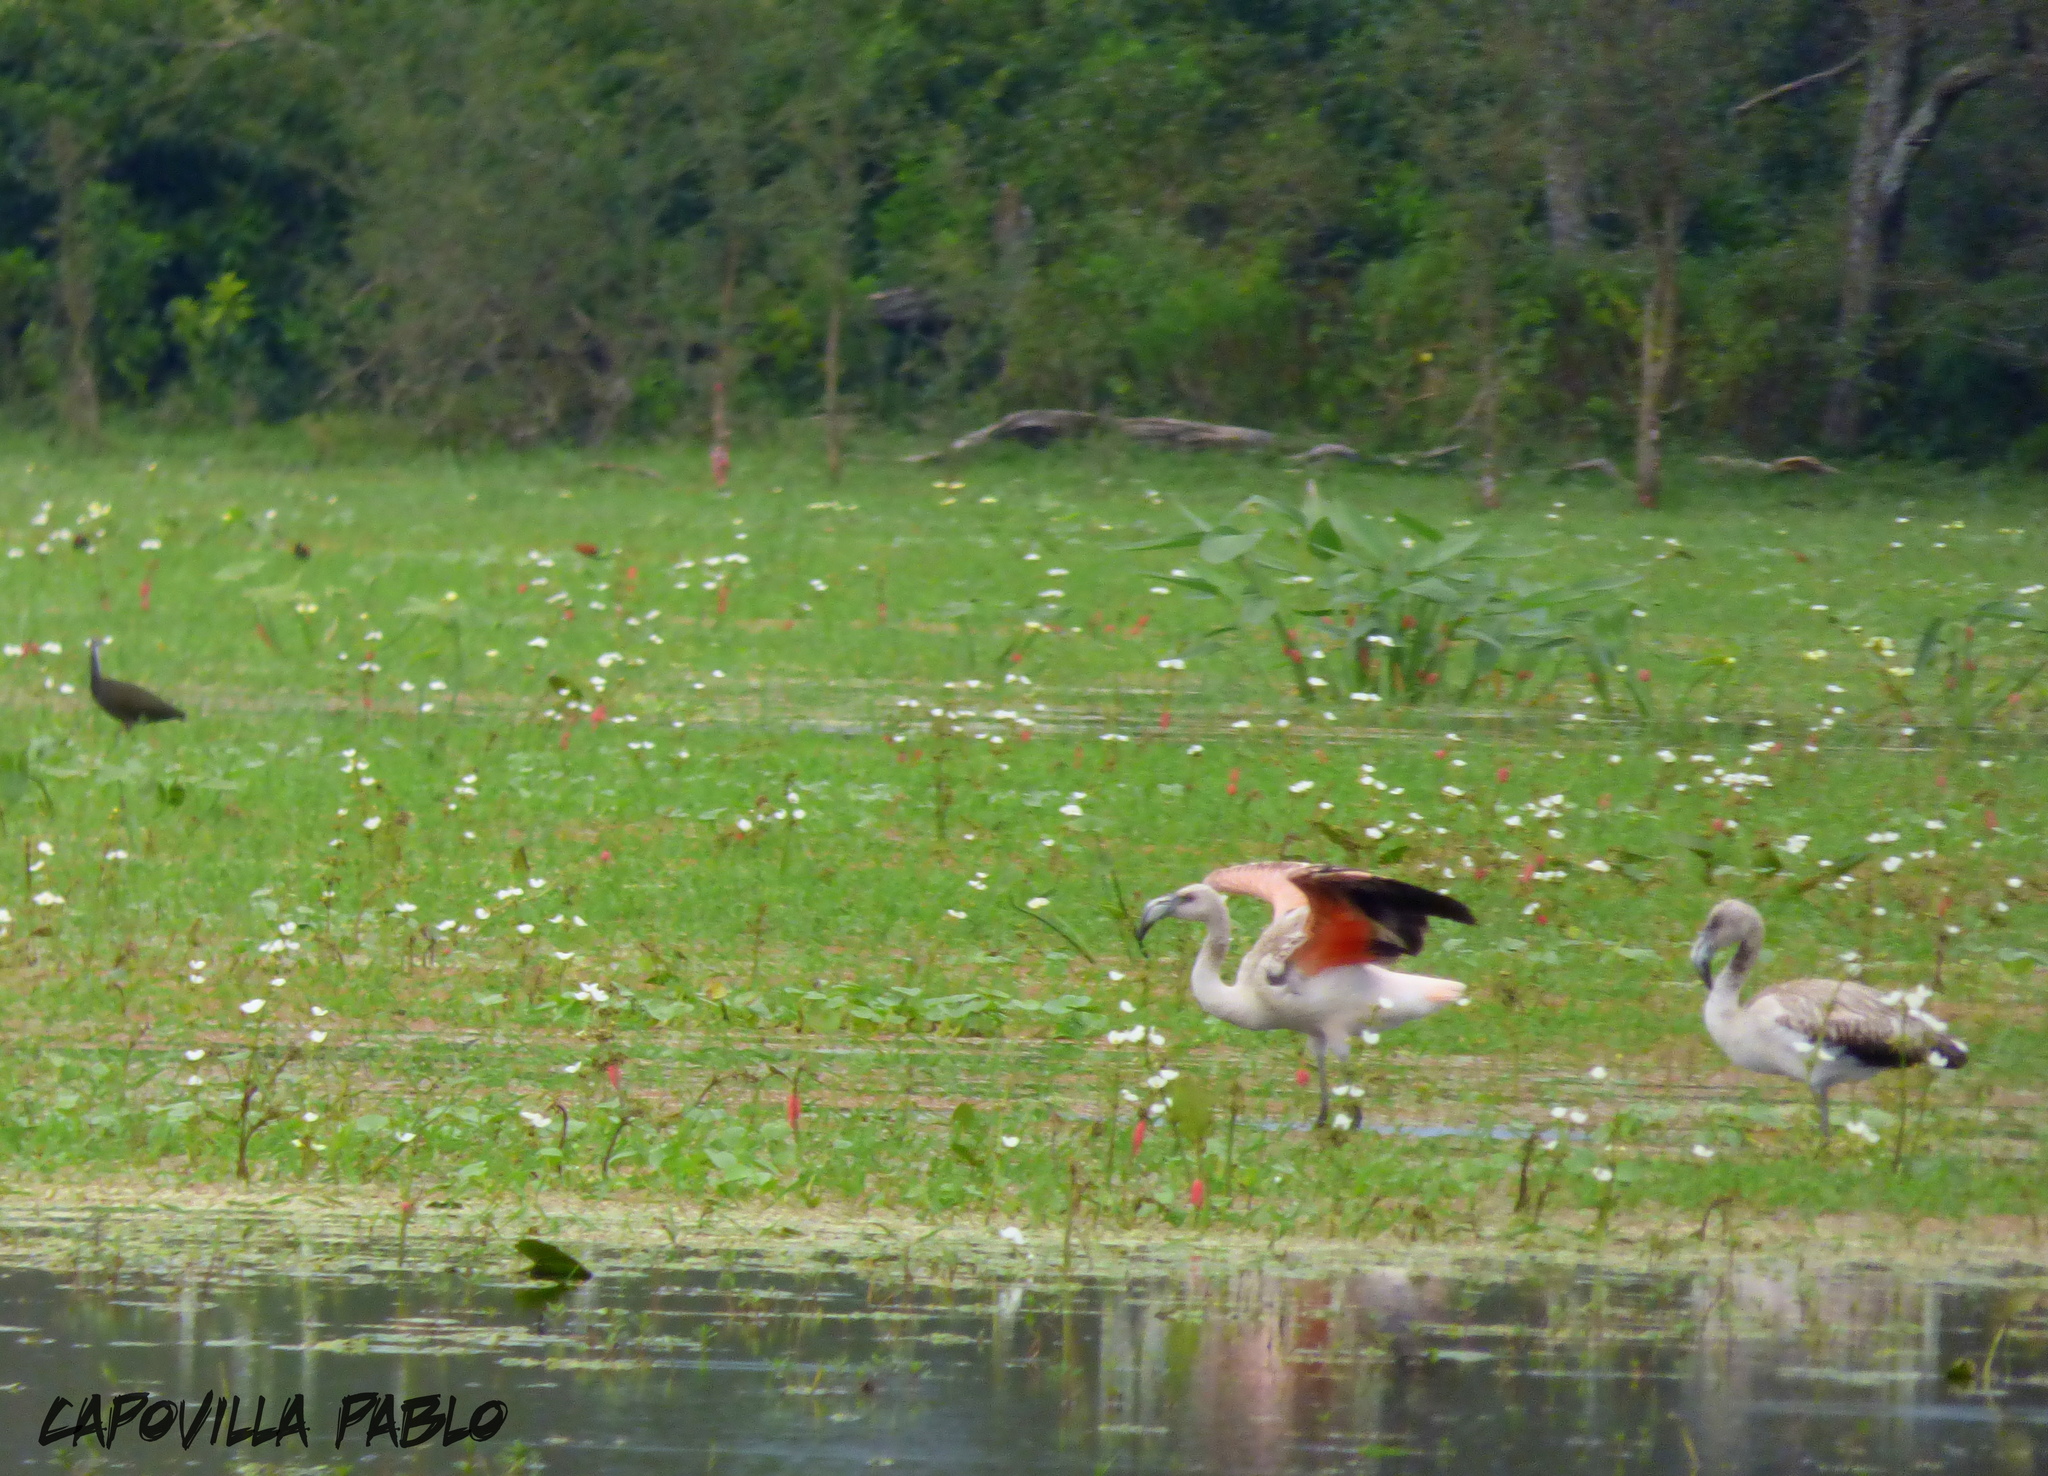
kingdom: Animalia
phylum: Chordata
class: Aves
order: Phoenicopteriformes
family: Phoenicopteridae
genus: Phoenicopterus
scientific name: Phoenicopterus chilensis
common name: Chilean flamingo
